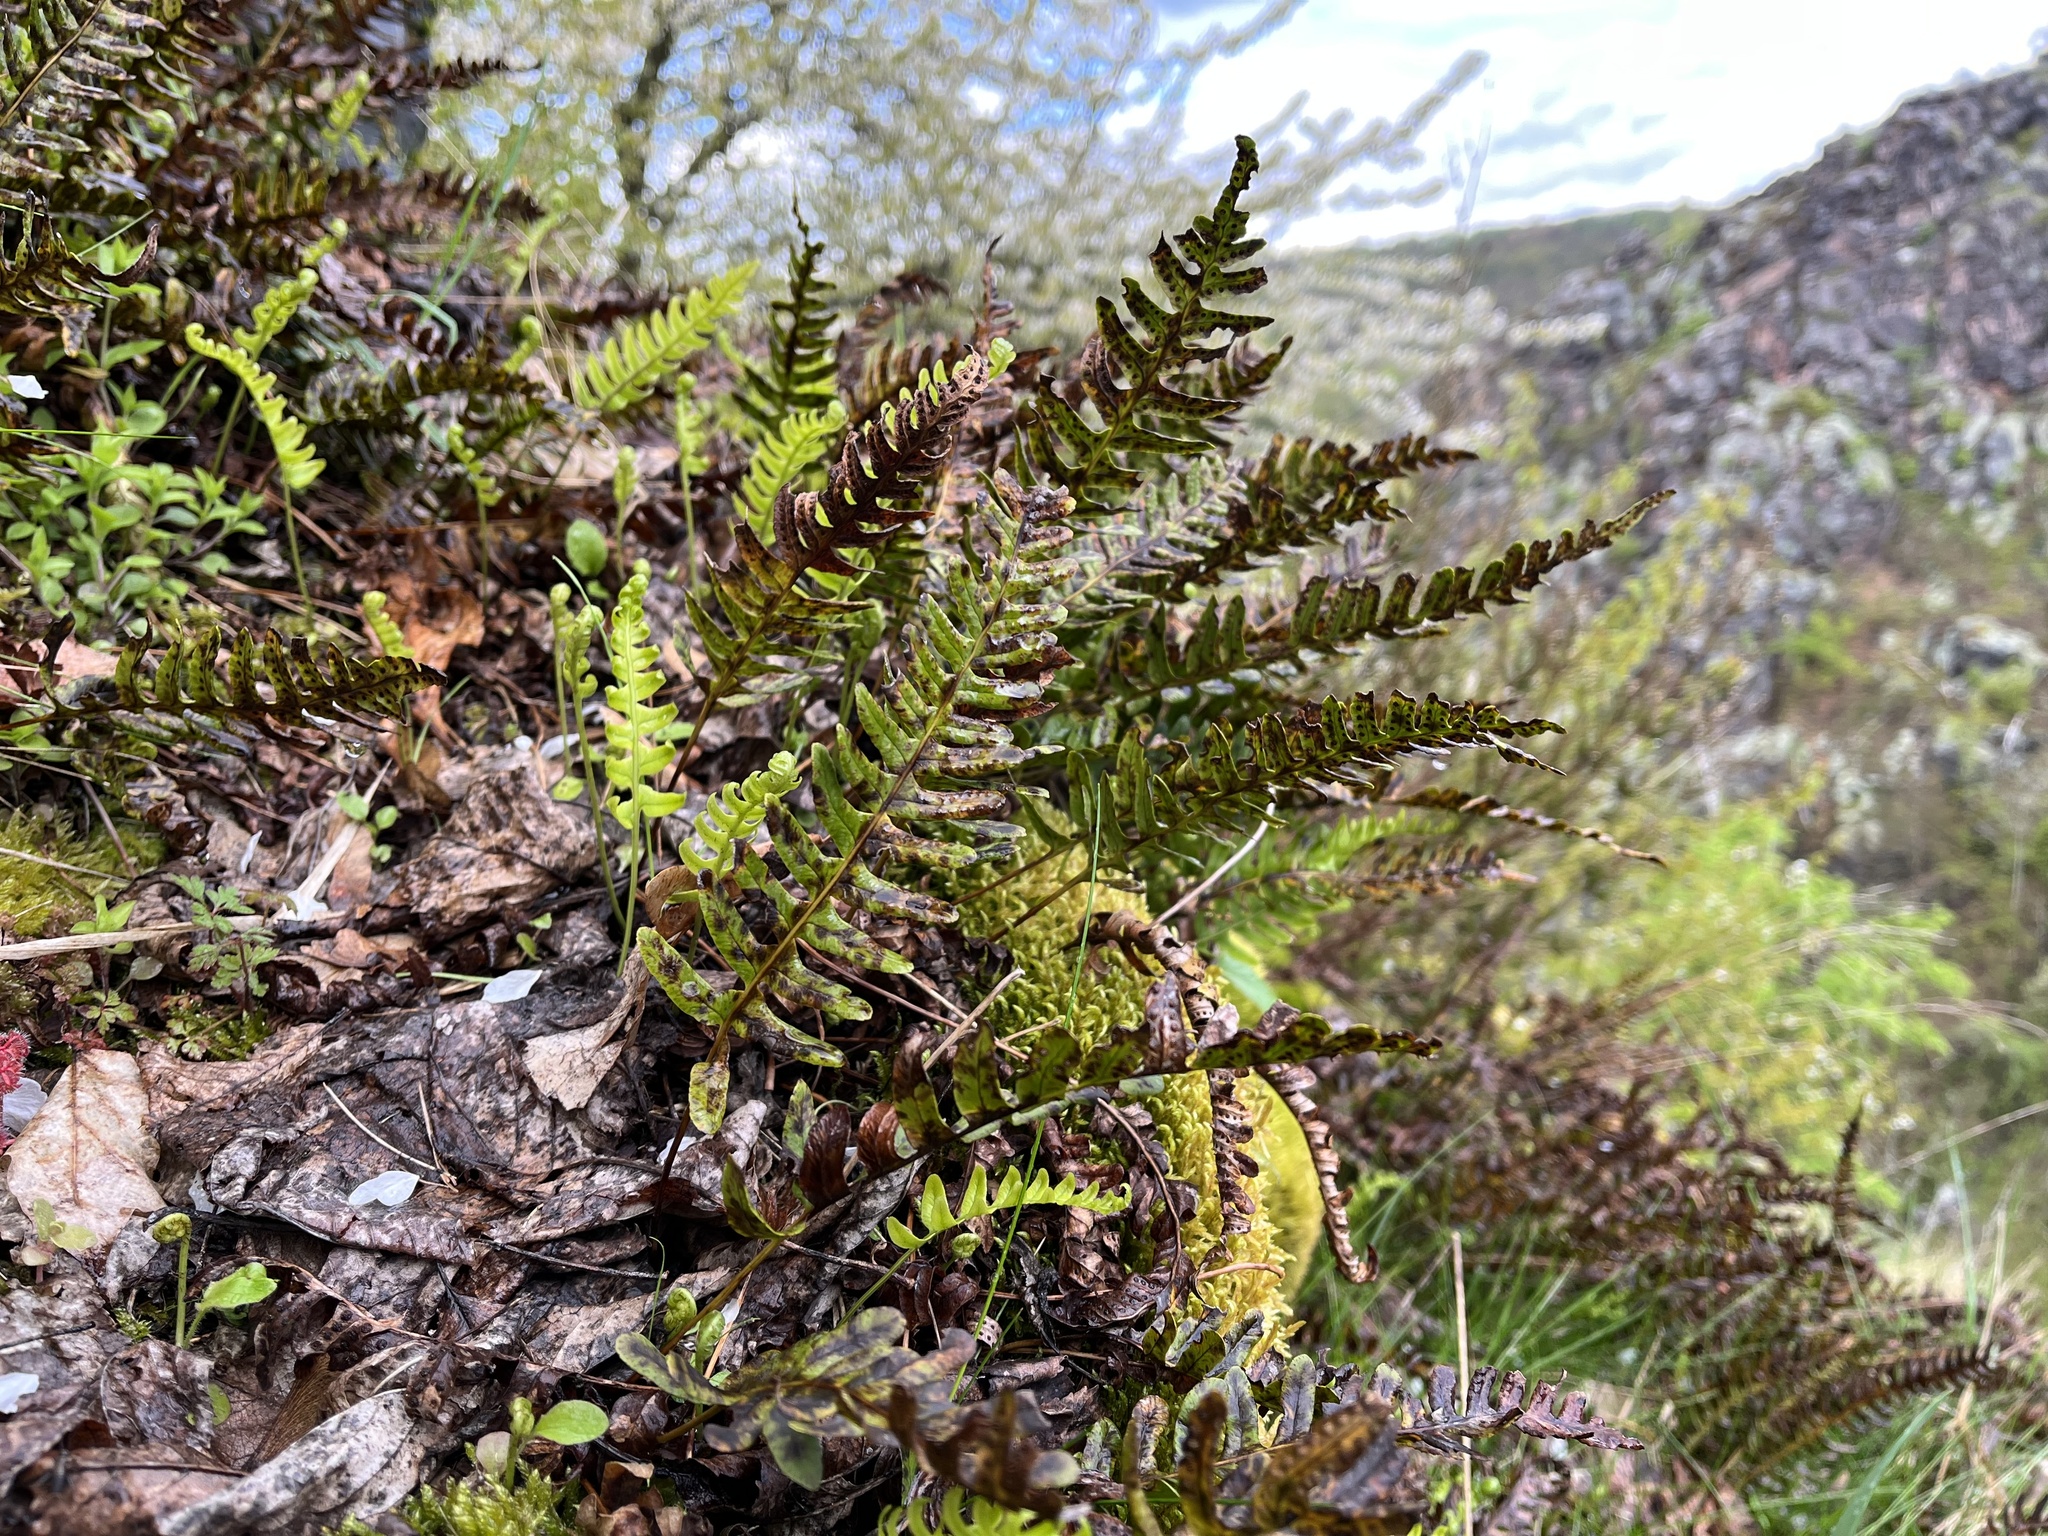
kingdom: Plantae
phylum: Tracheophyta
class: Polypodiopsida
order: Polypodiales
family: Polypodiaceae
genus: Polypodium
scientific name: Polypodium vulgare
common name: Common polypody
